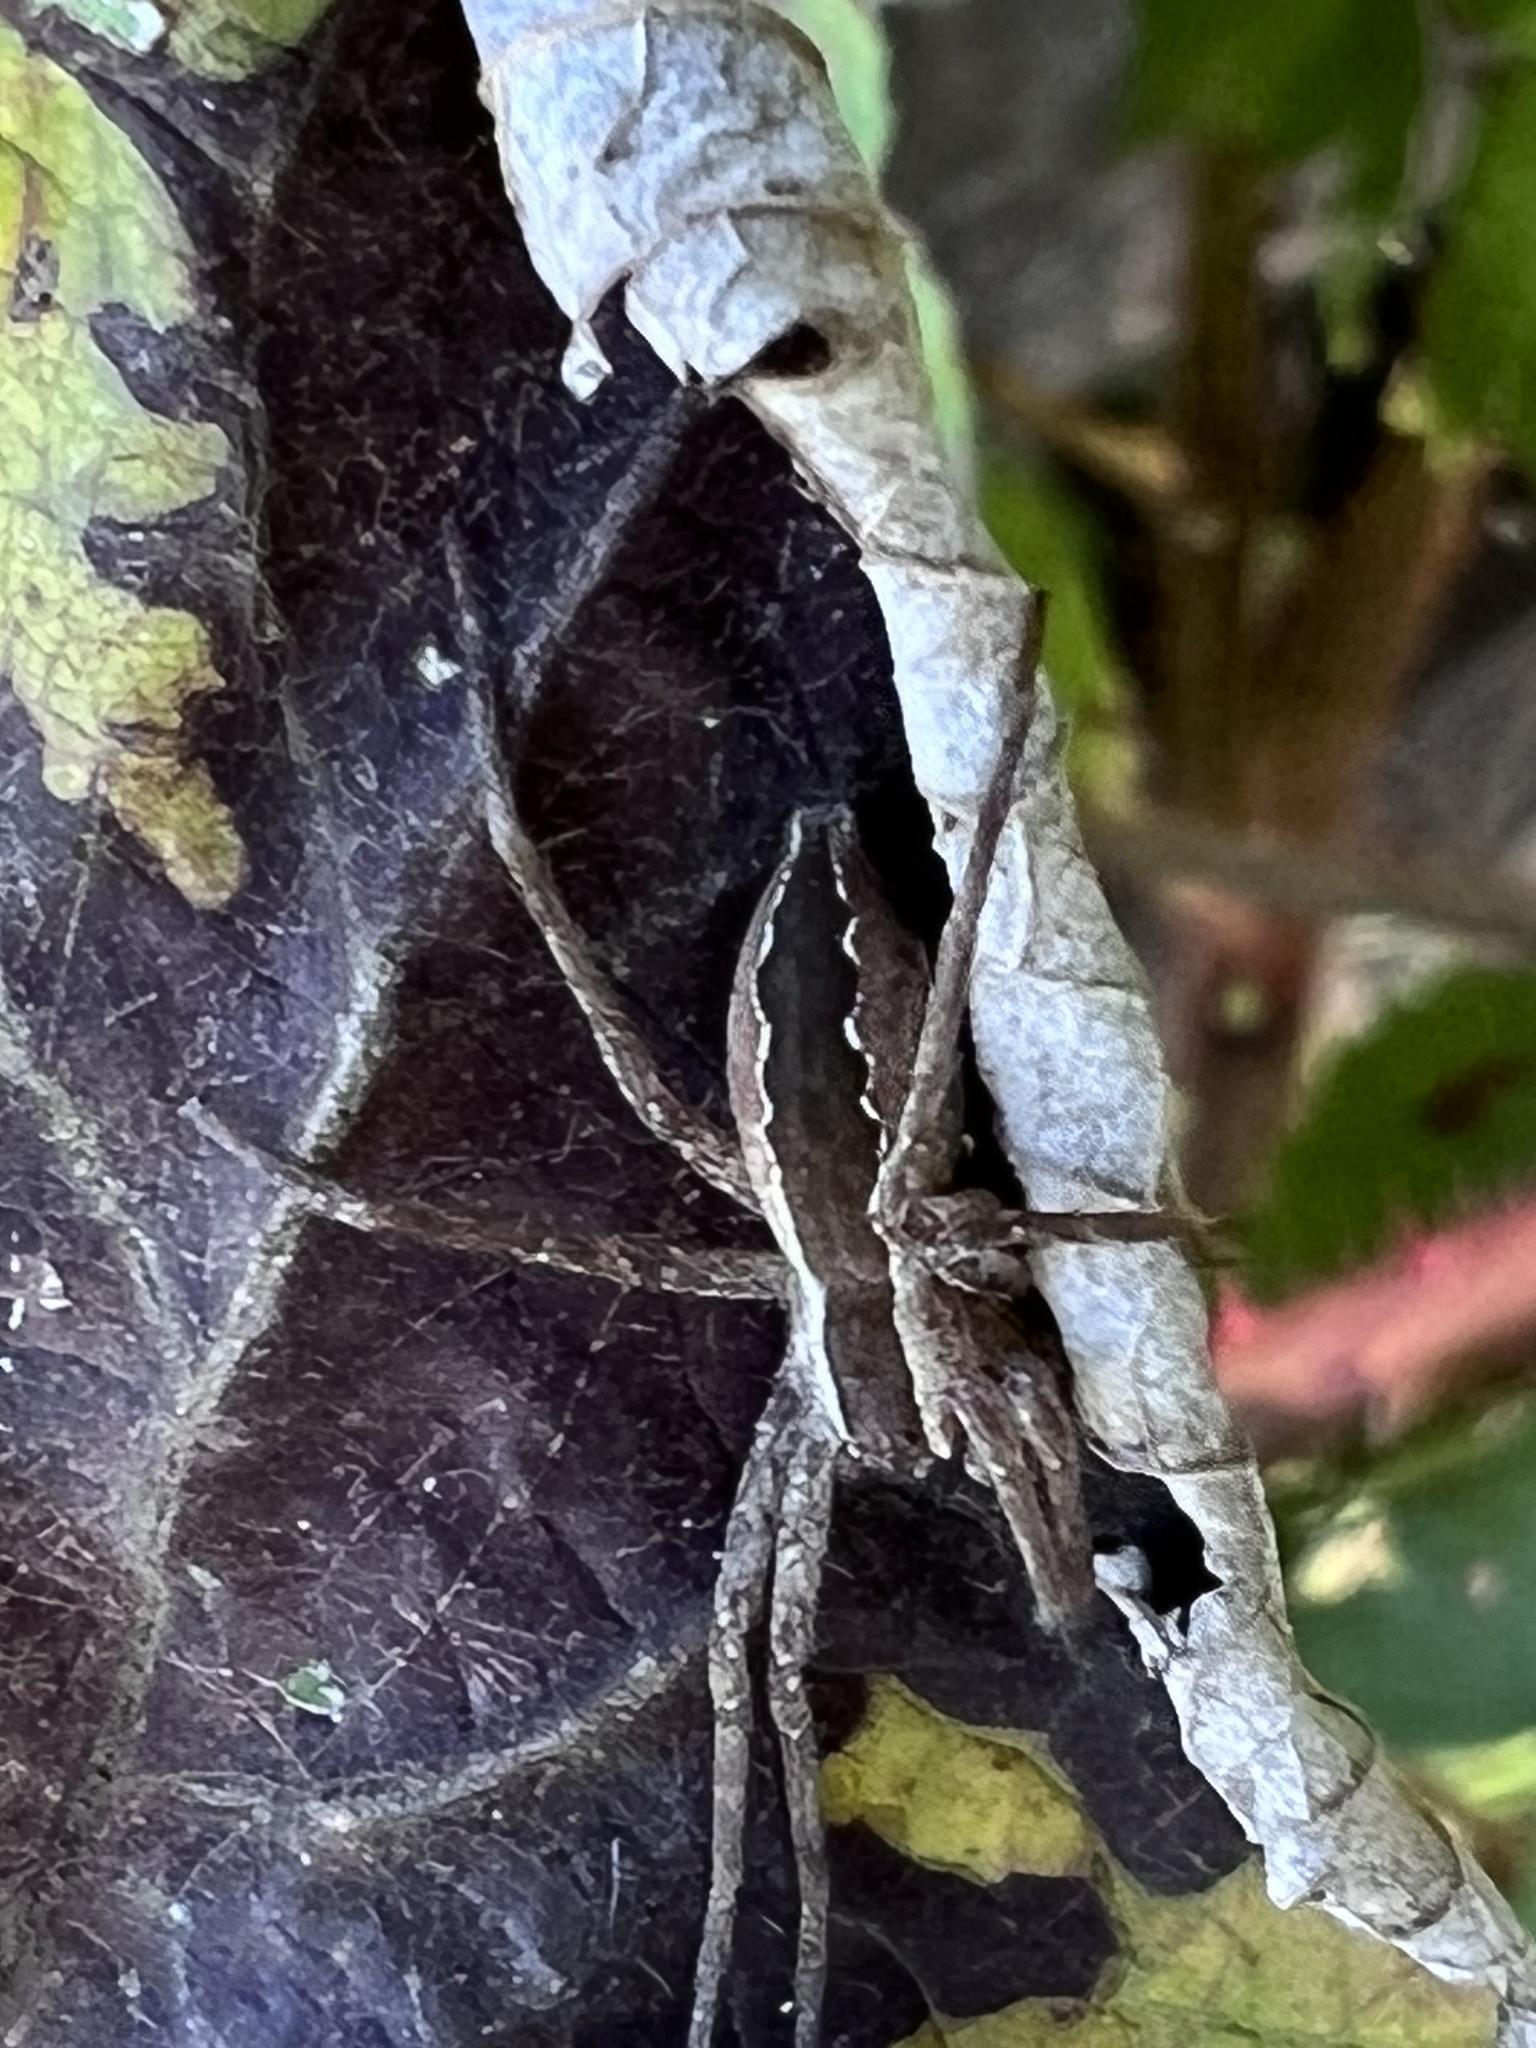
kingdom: Animalia
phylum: Arthropoda
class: Arachnida
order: Araneae
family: Pisauridae
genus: Pisaurina
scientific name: Pisaurina mira
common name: American nursery web spider
